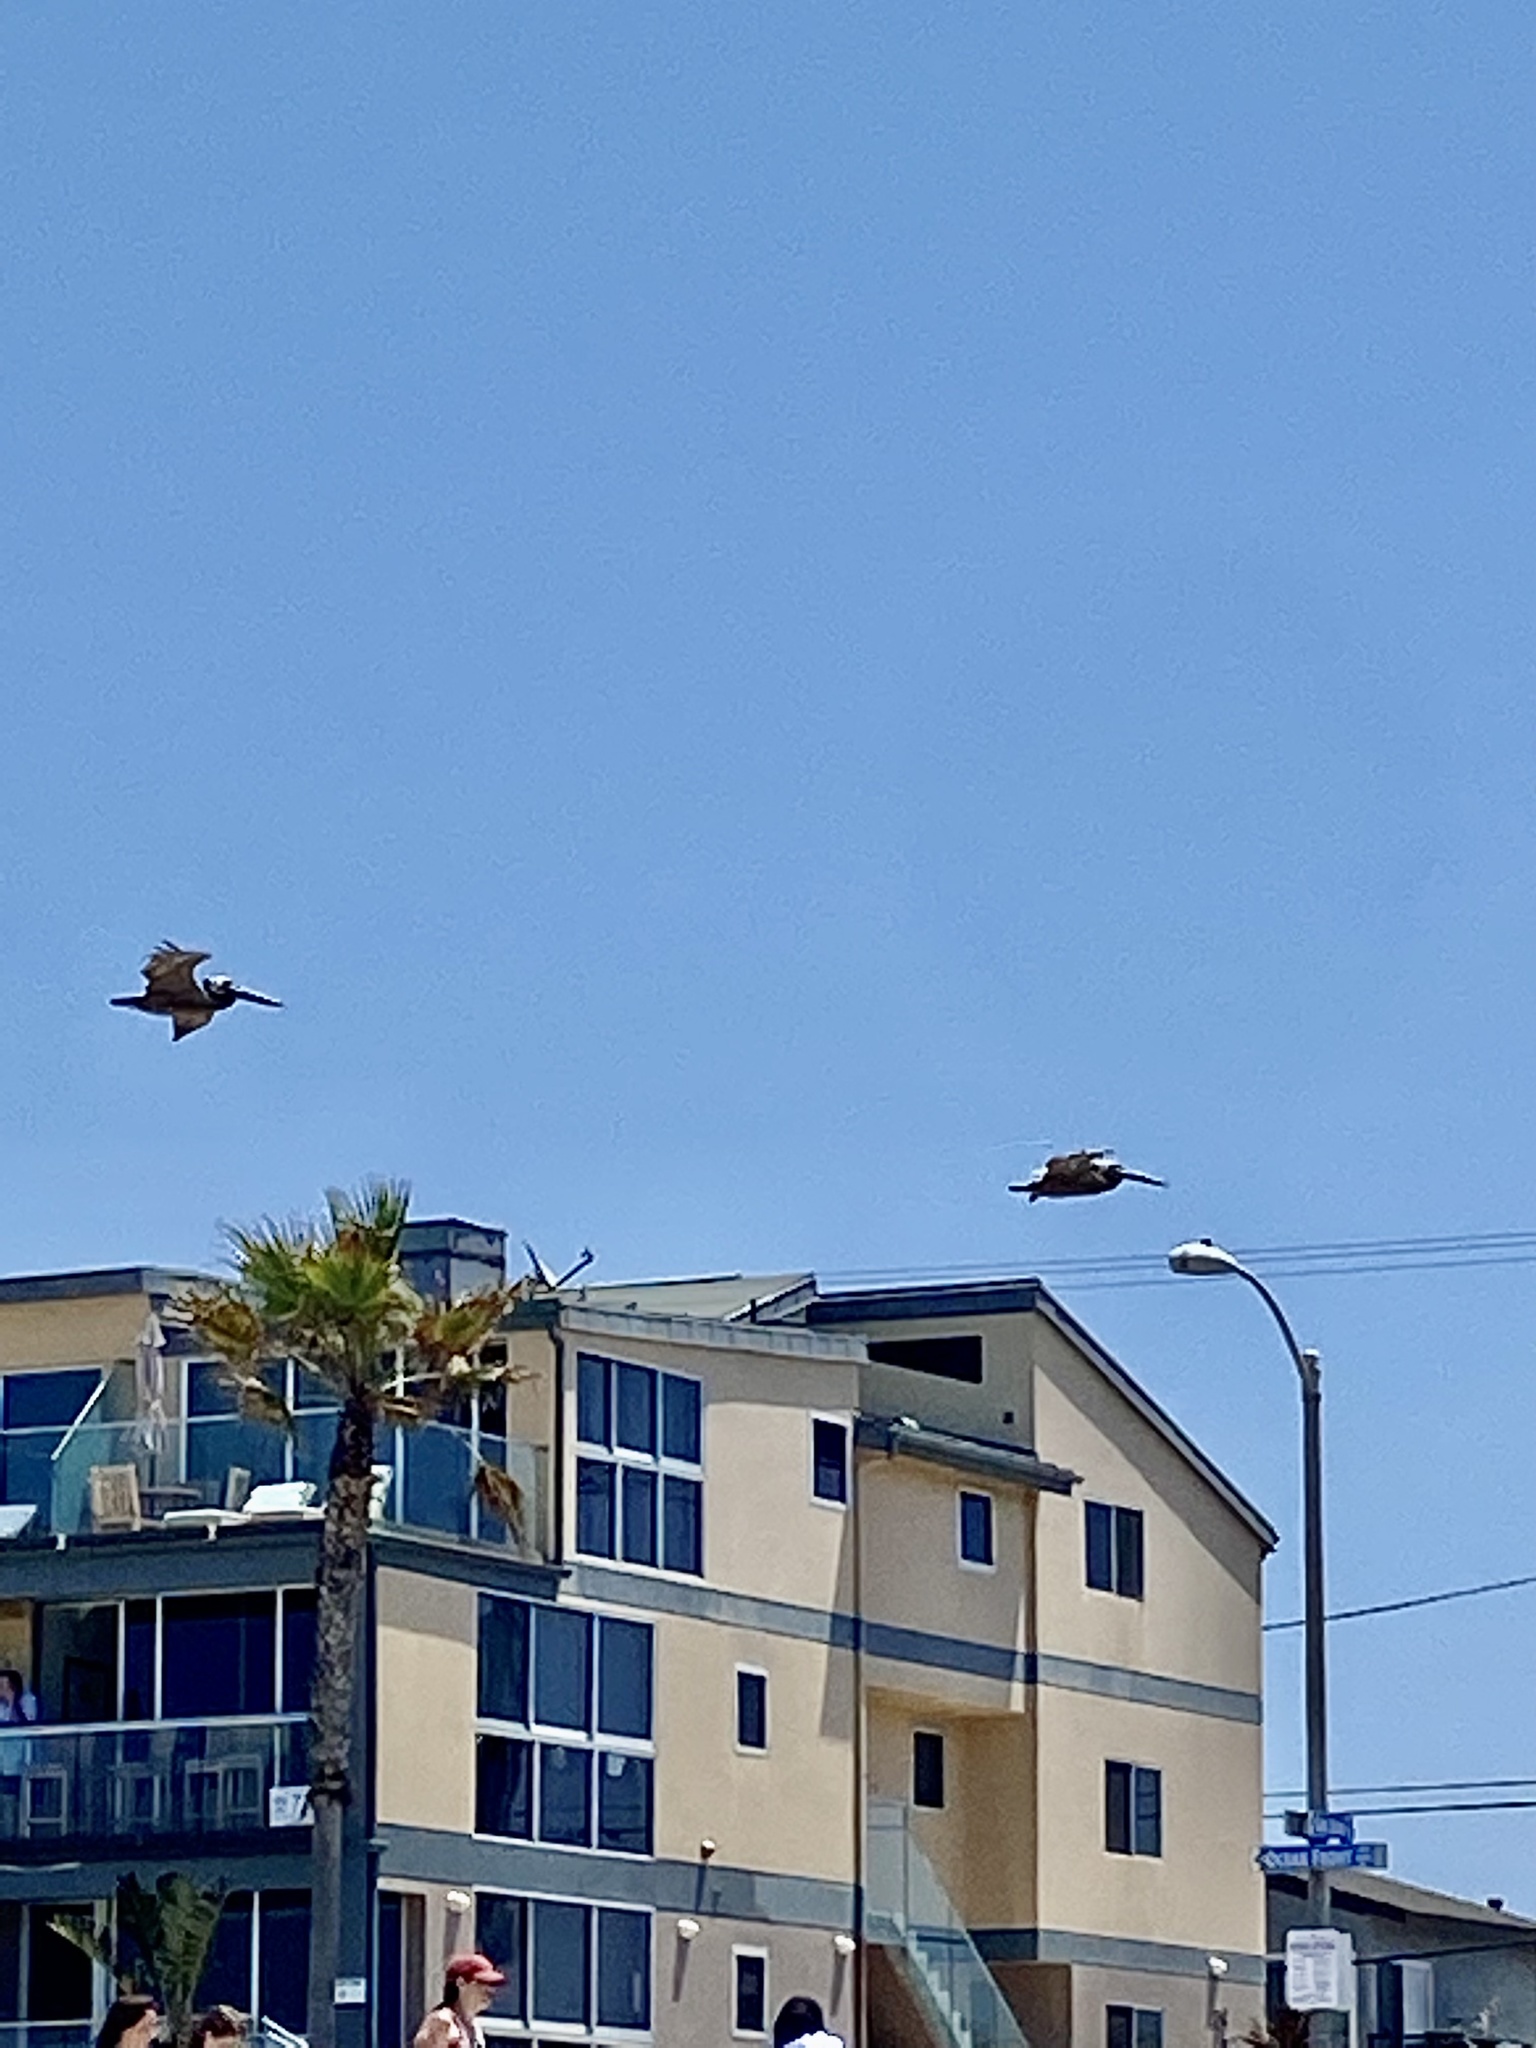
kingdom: Animalia
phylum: Chordata
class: Aves
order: Pelecaniformes
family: Pelecanidae
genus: Pelecanus
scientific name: Pelecanus occidentalis
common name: Brown pelican
